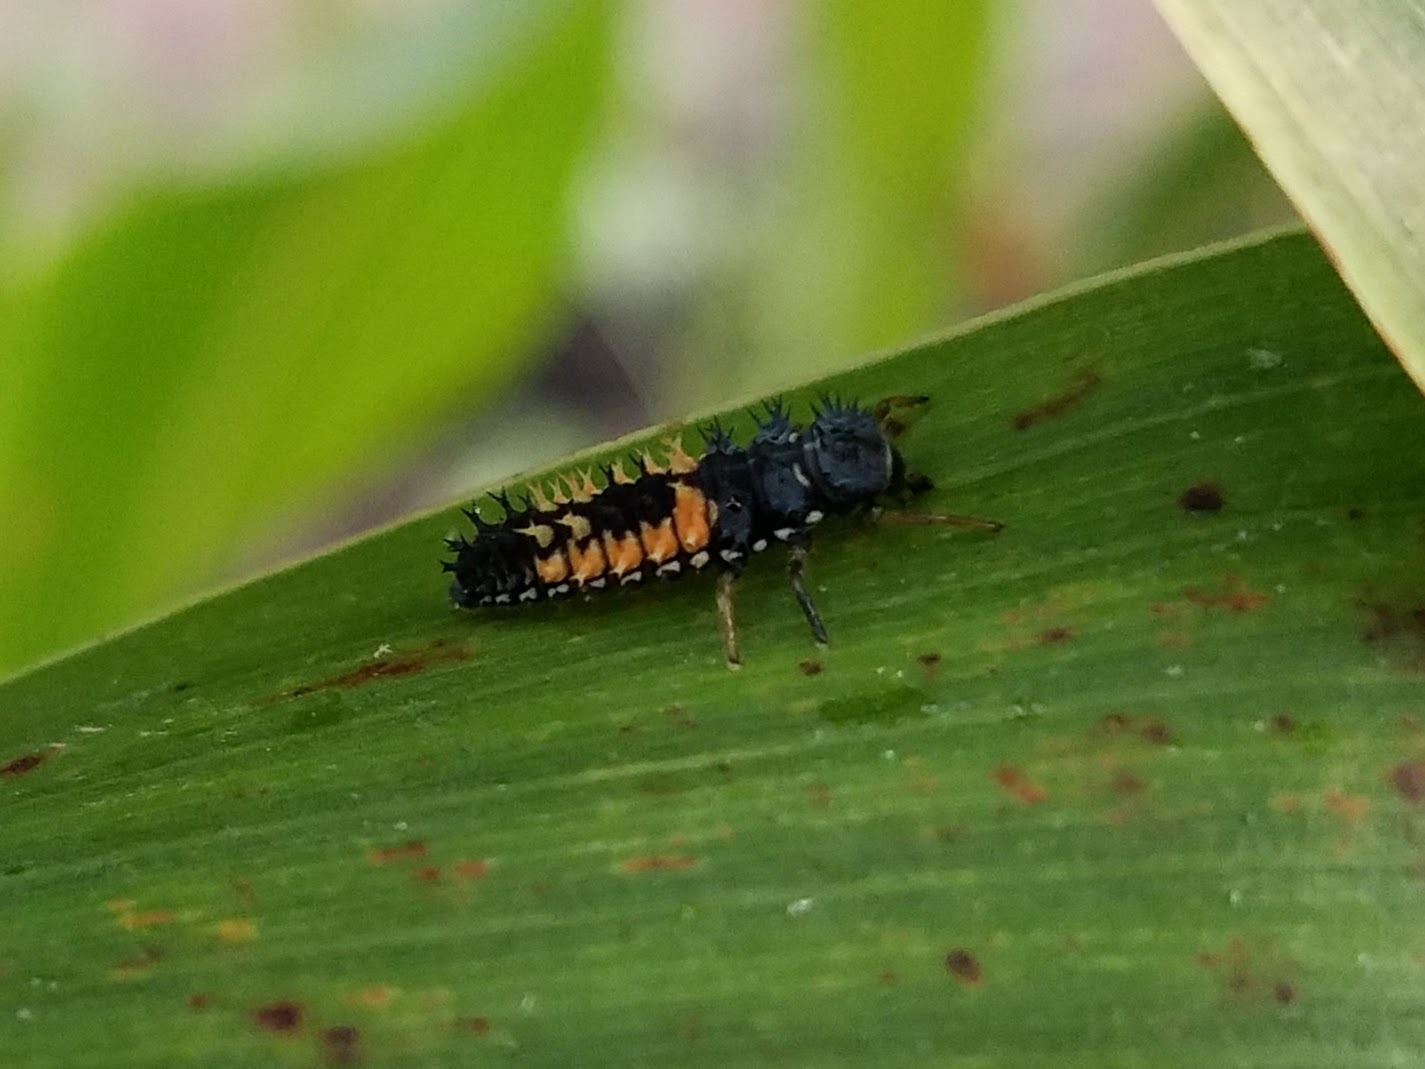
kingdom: Animalia
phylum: Arthropoda
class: Insecta
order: Coleoptera
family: Coccinellidae
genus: Harmonia
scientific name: Harmonia axyridis
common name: Harlequin ladybird
